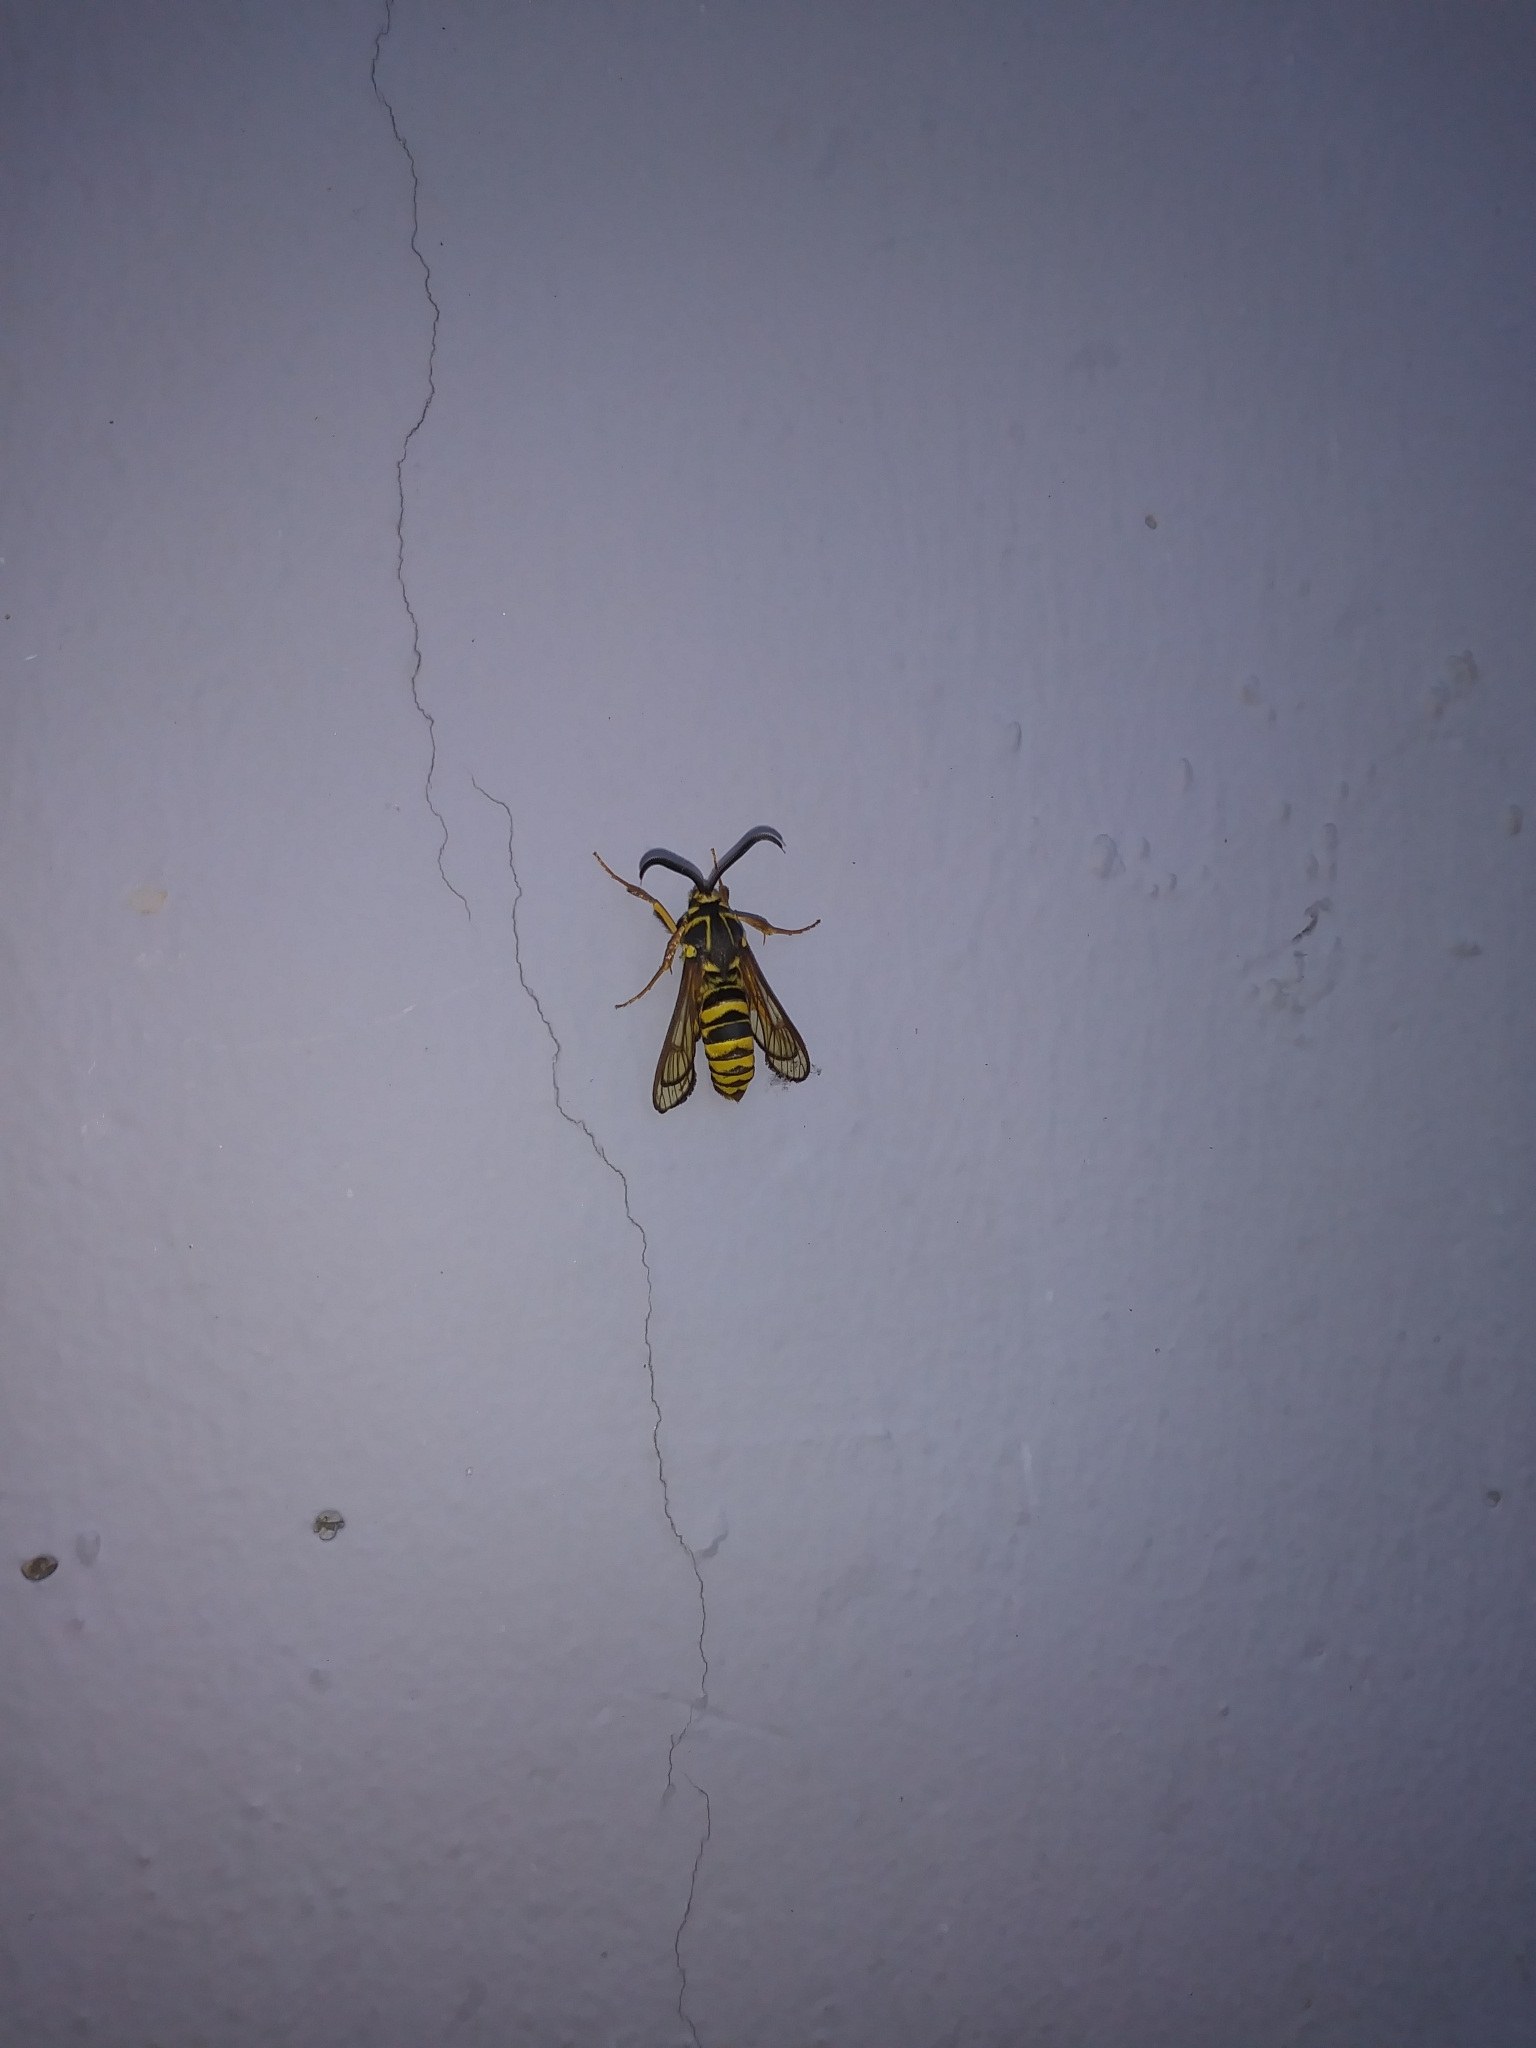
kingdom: Animalia
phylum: Arthropoda
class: Insecta
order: Lepidoptera
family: Sesiidae
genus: Sesia
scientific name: Sesia tibiale
